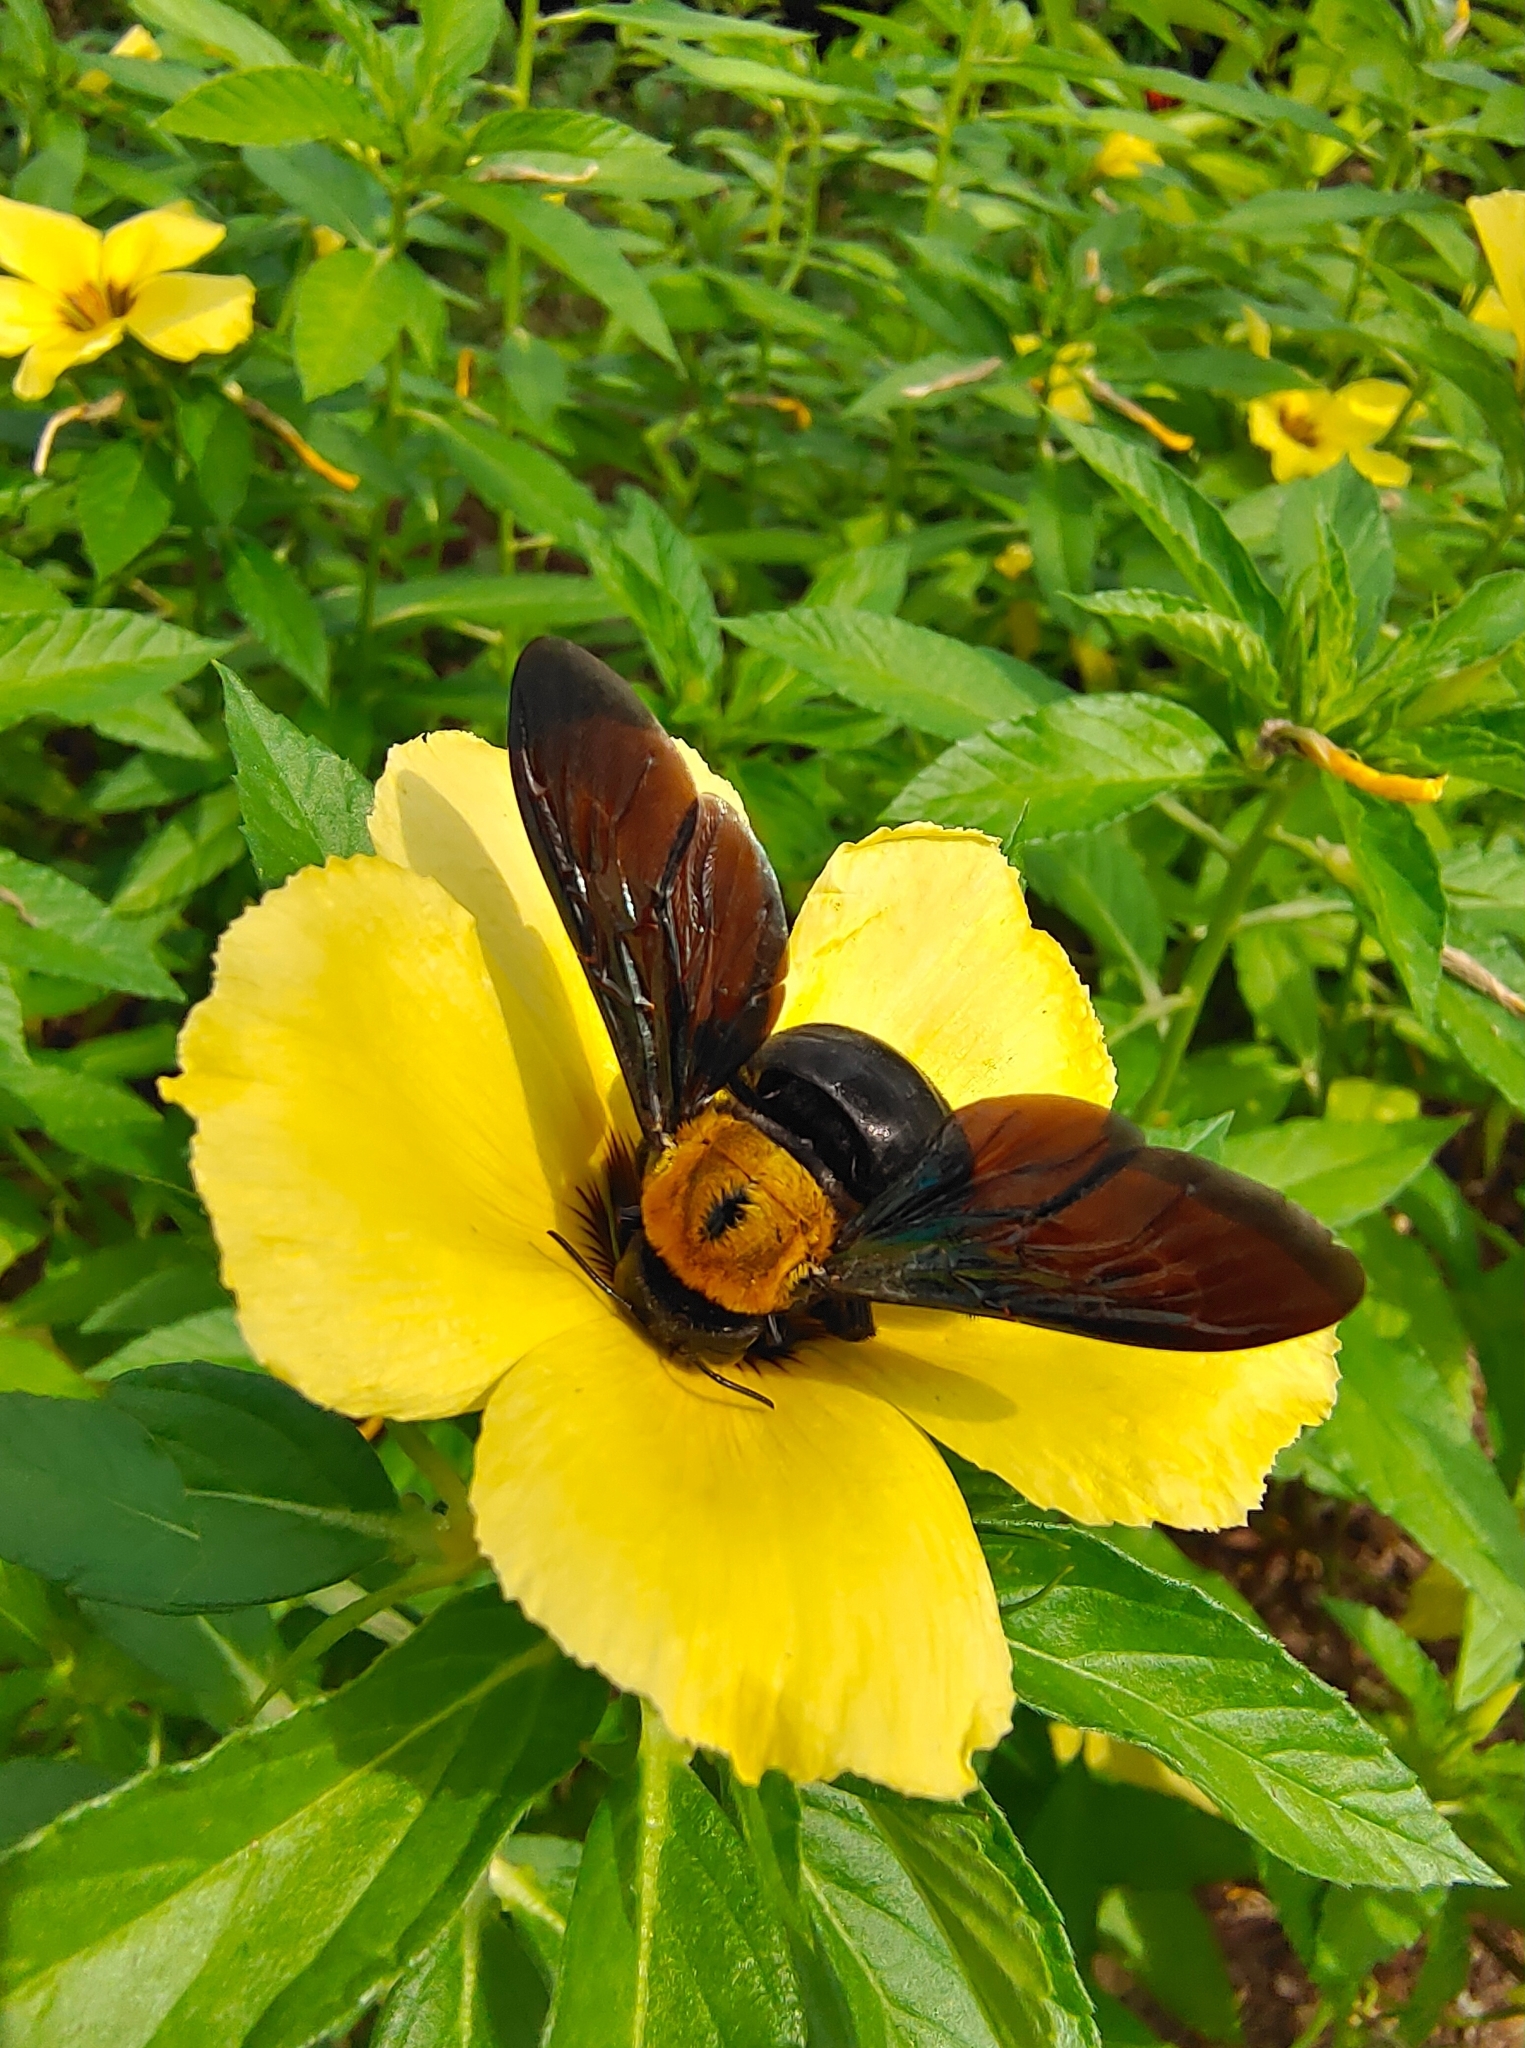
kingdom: Animalia
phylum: Arthropoda
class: Insecta
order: Hymenoptera
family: Apidae
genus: Xylocopa
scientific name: Xylocopa aestuans
